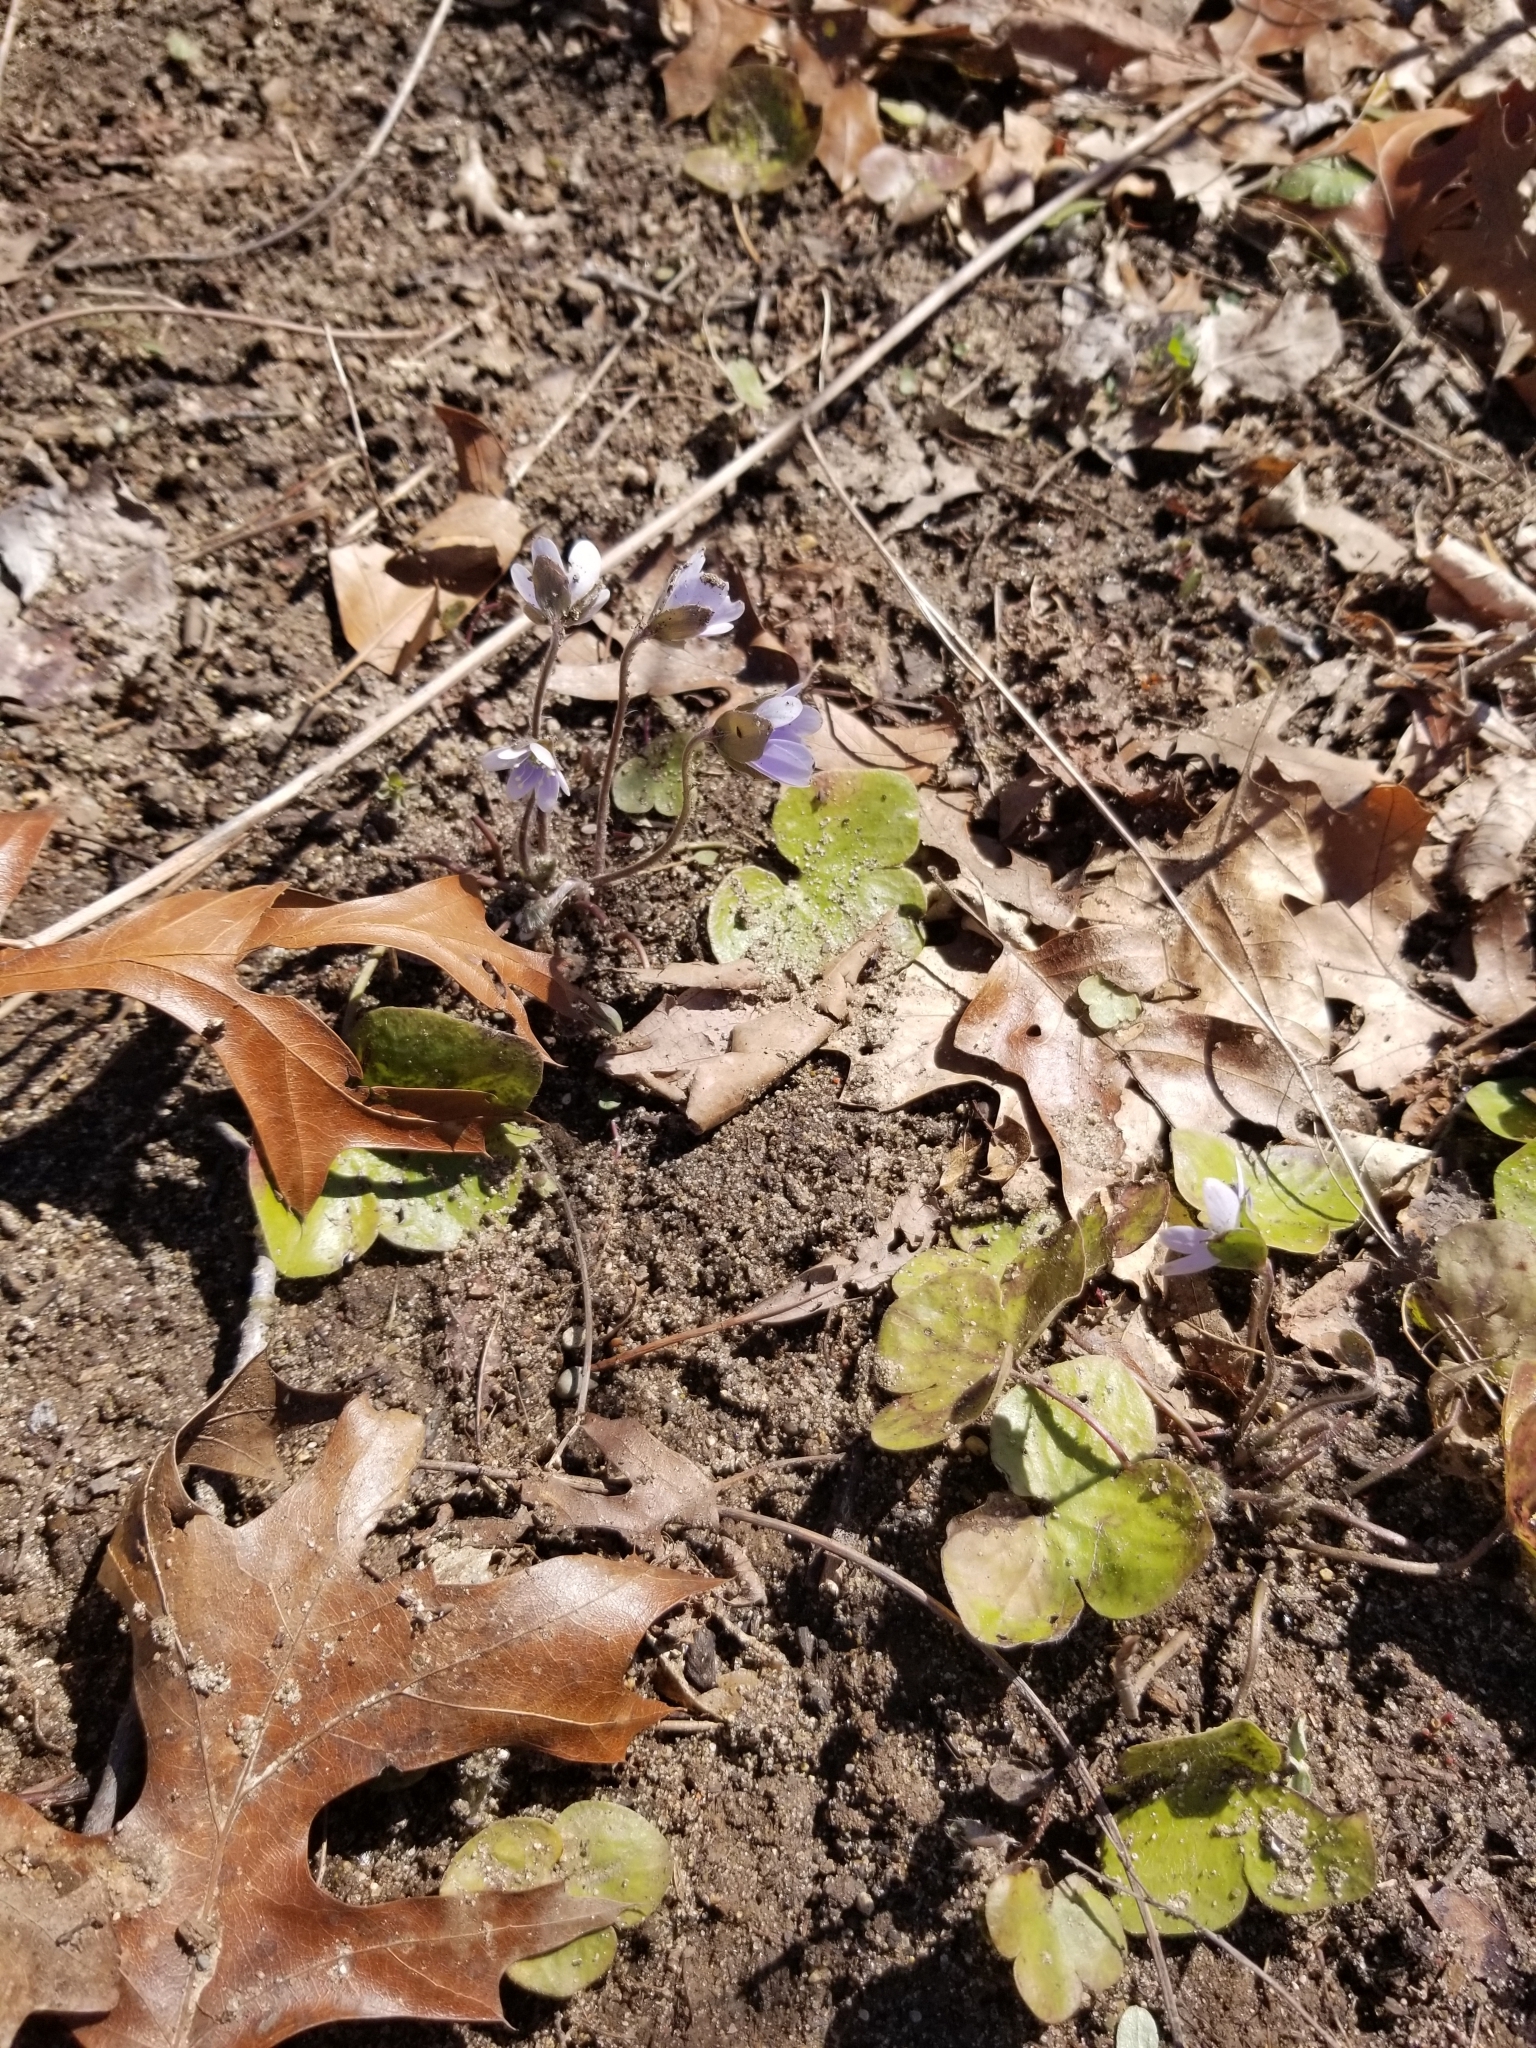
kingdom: Plantae
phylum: Tracheophyta
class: Magnoliopsida
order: Ranunculales
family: Ranunculaceae
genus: Hepatica
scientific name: Hepatica americana
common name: American hepatica
